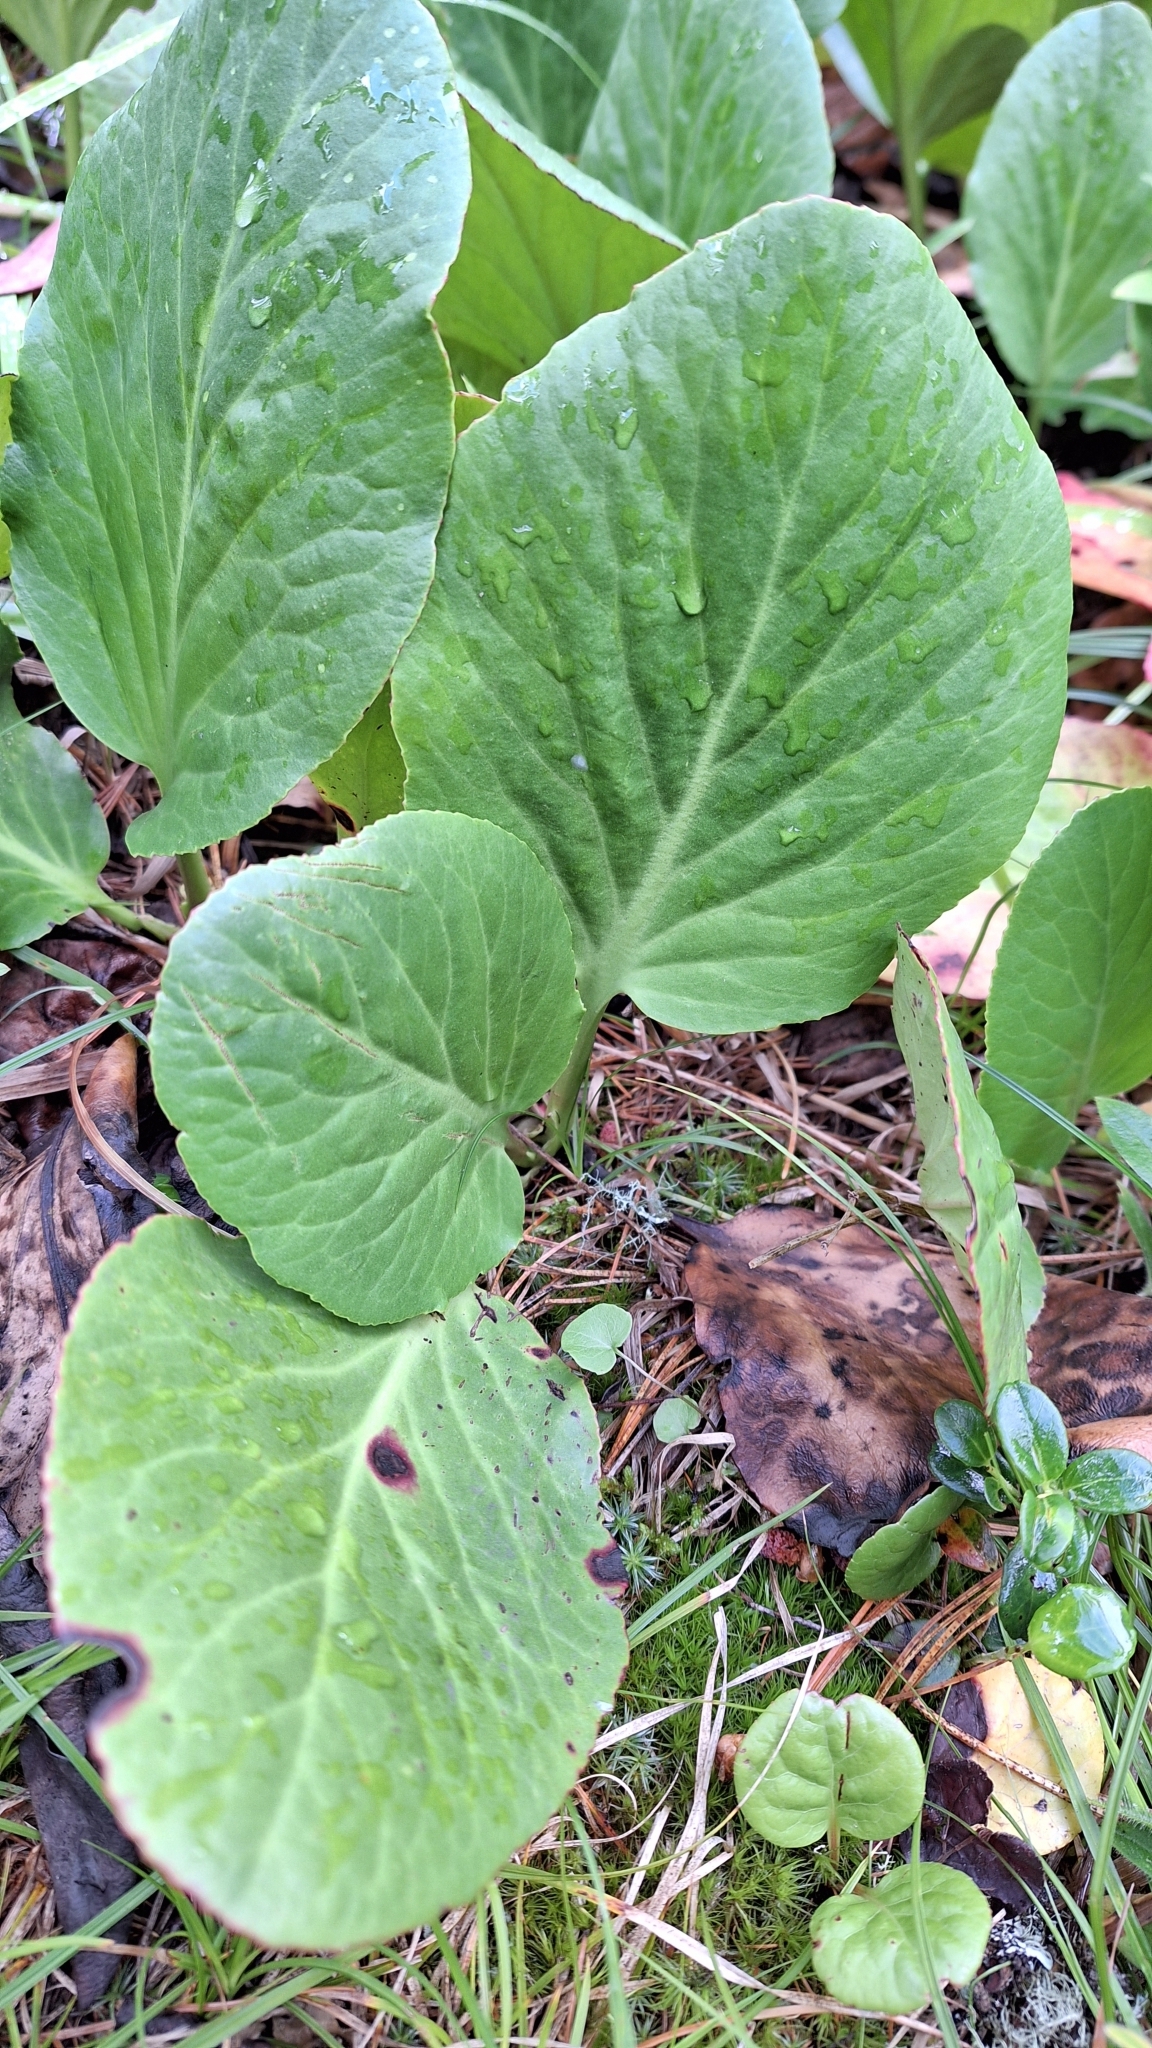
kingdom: Plantae
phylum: Tracheophyta
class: Magnoliopsida
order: Saxifragales
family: Saxifragaceae
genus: Bergenia
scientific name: Bergenia crassifolia
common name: Elephant-ears
